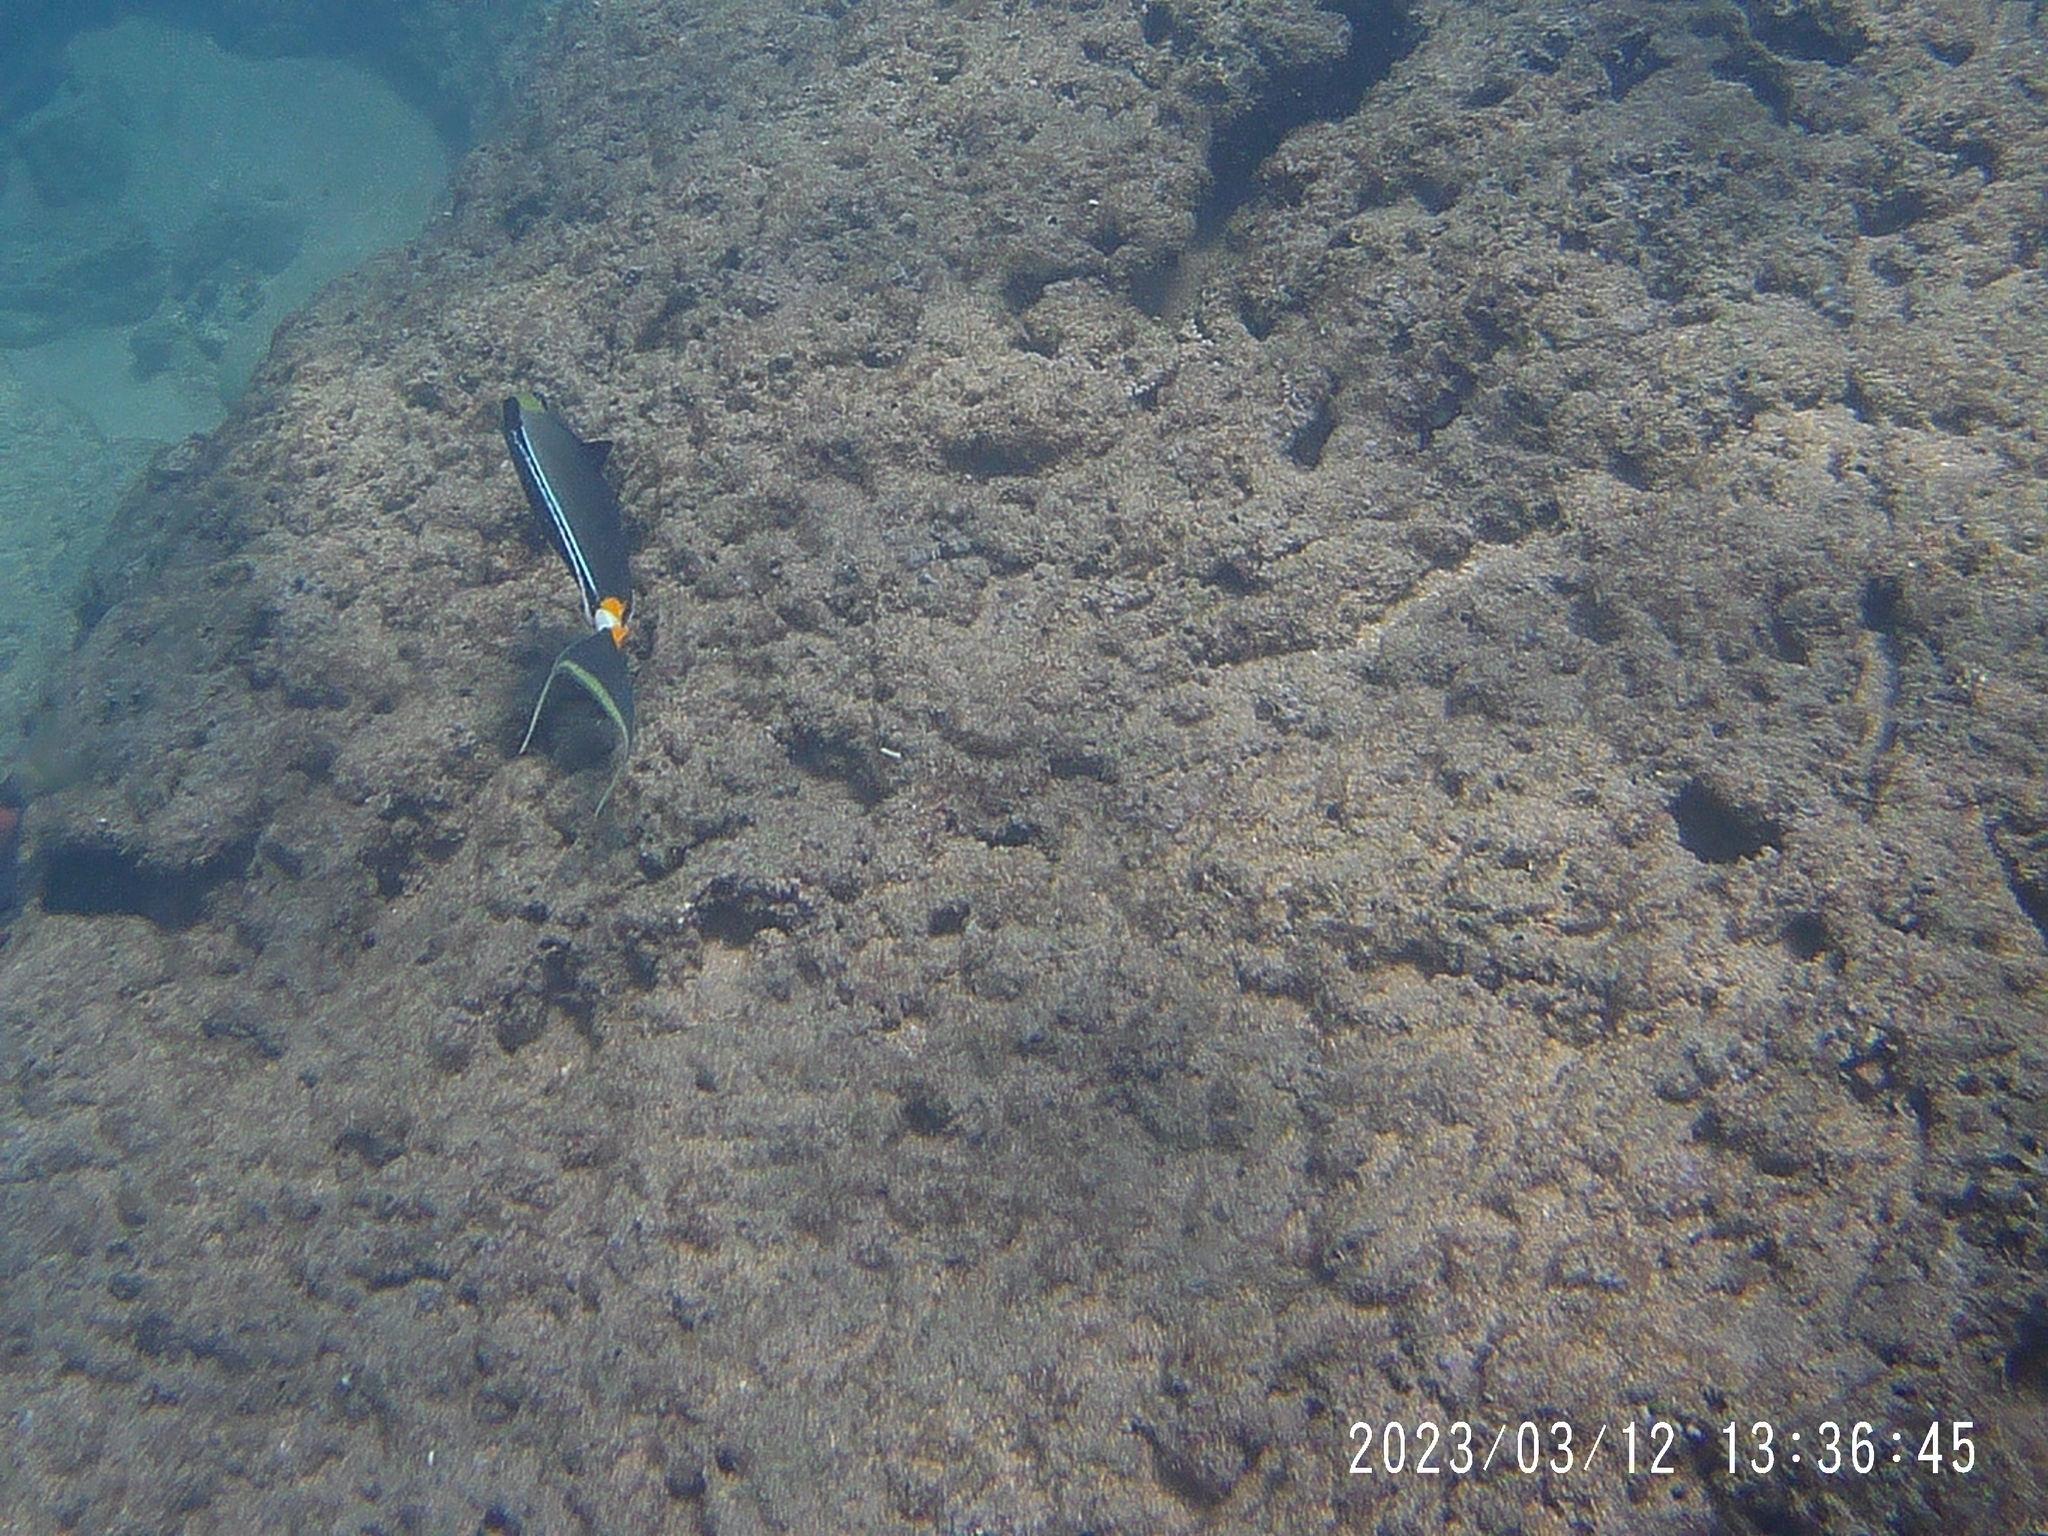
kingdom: Animalia
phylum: Chordata
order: Perciformes
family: Acanthuridae
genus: Naso
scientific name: Naso lituratus
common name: Orangespine unicornfish
